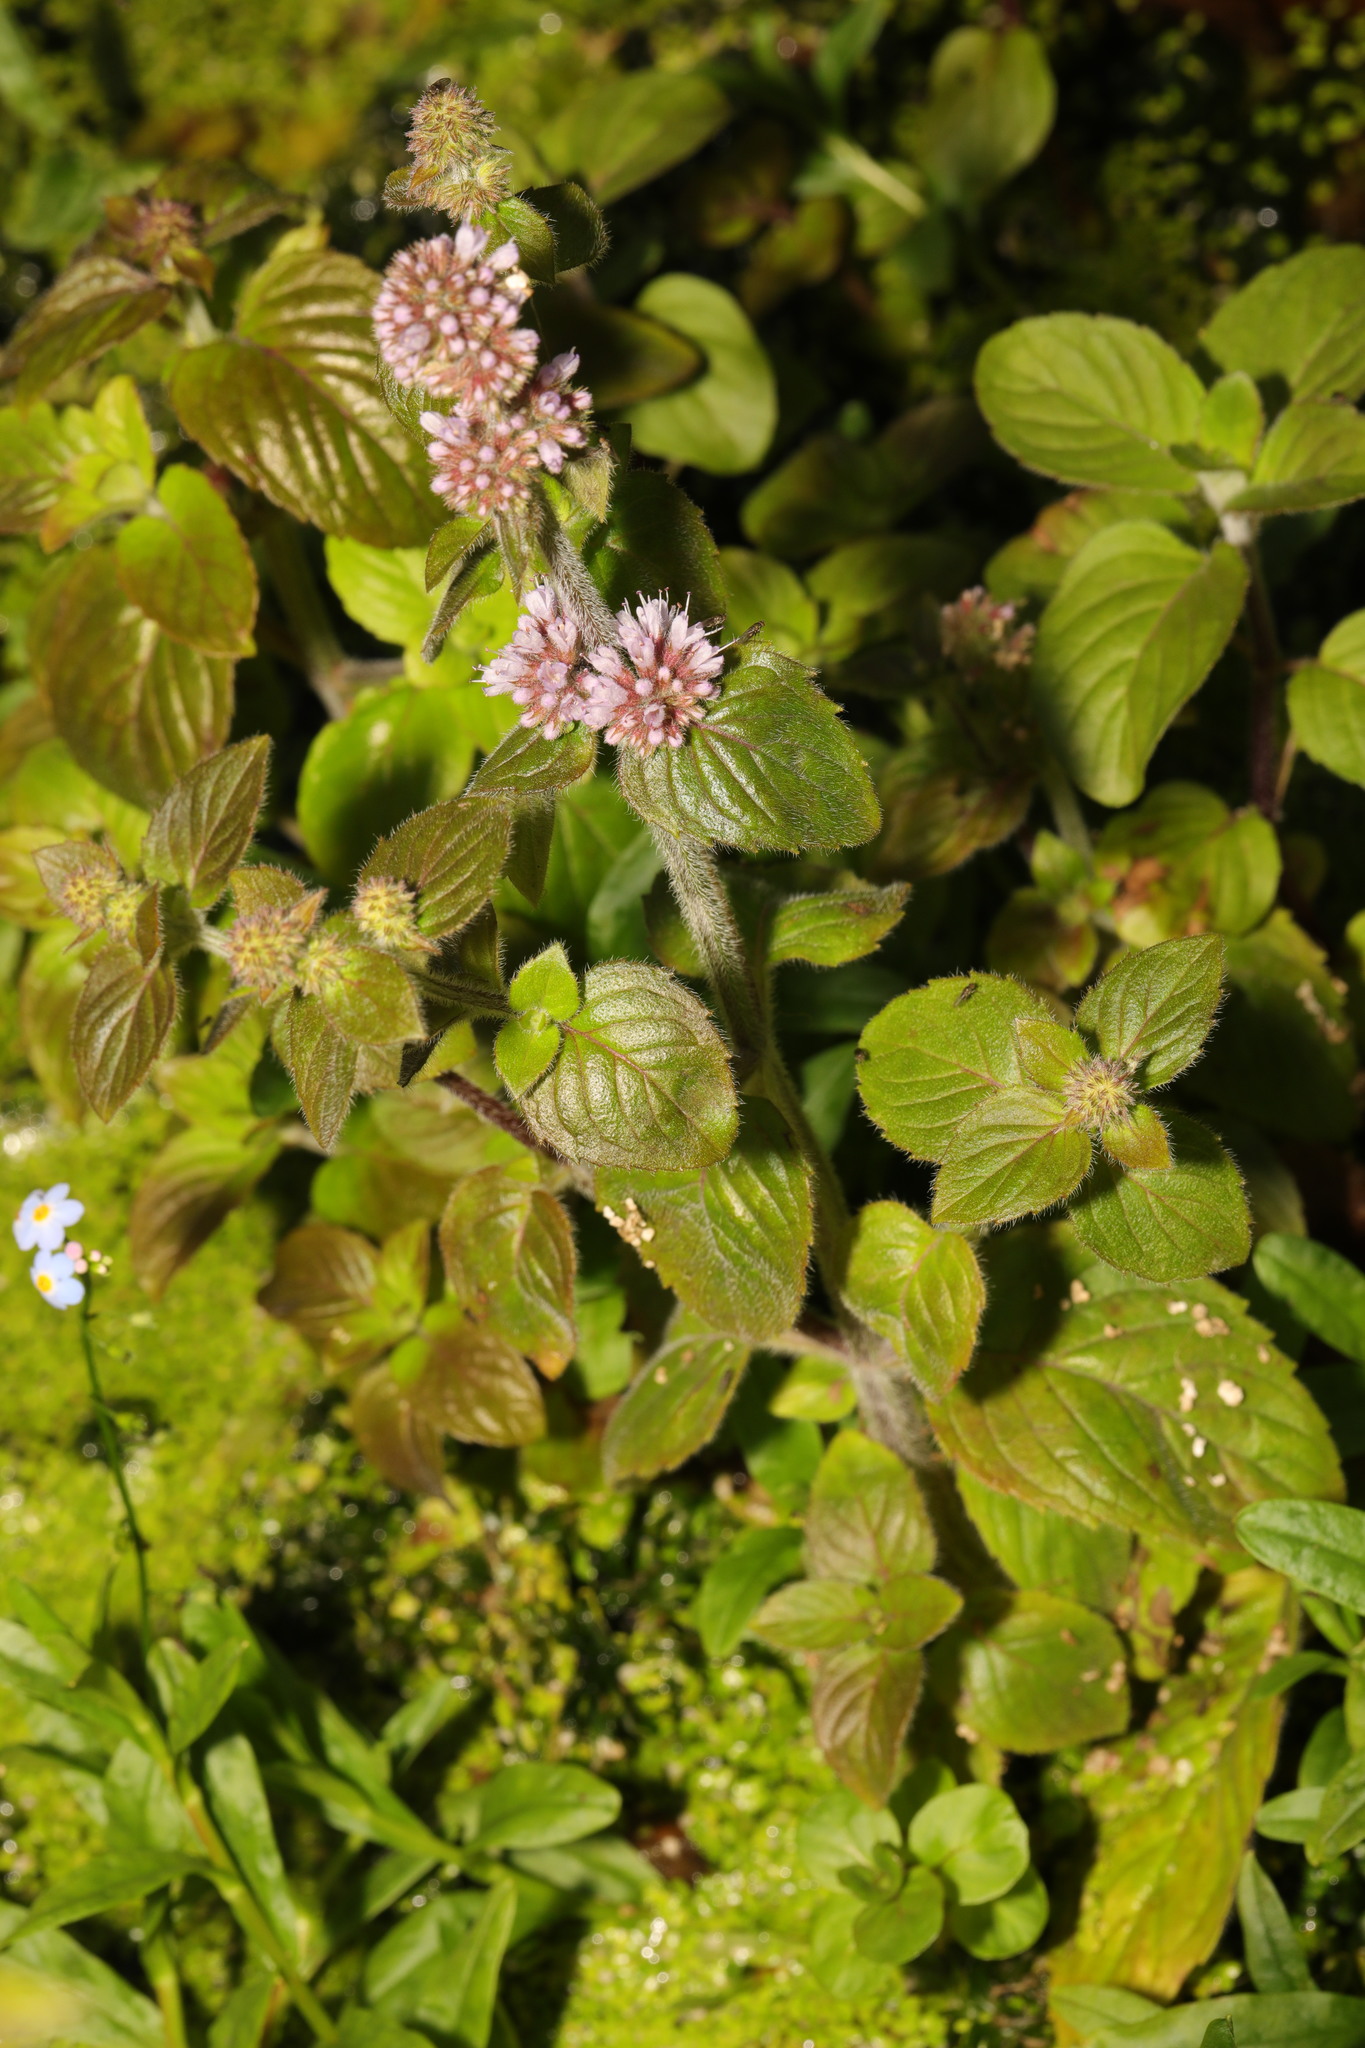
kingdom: Plantae
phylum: Tracheophyta
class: Magnoliopsida
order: Lamiales
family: Lamiaceae
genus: Mentha
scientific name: Mentha aquatica
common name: Water mint
